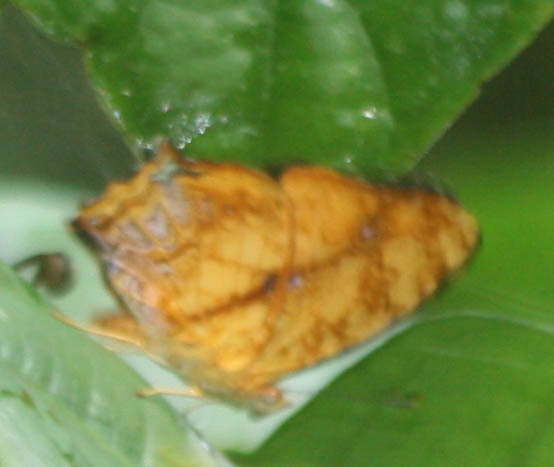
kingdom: Animalia
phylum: Arthropoda
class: Insecta
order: Lepidoptera
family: Nymphalidae
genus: Symbrenthia
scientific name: Symbrenthia hypselis
